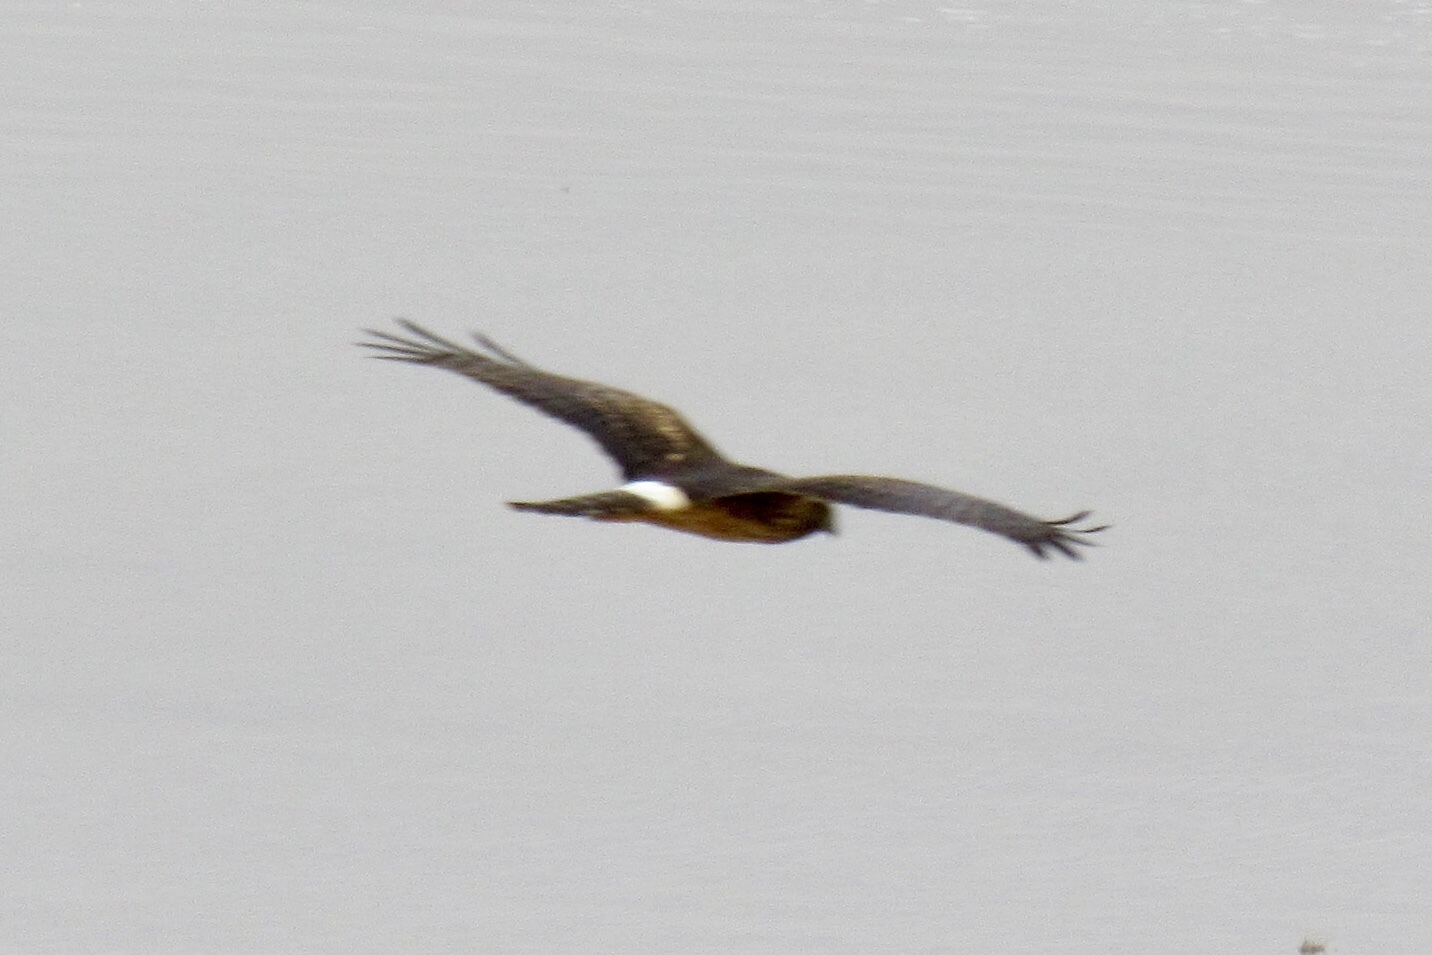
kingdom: Animalia
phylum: Chordata
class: Aves
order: Accipitriformes
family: Accipitridae
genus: Circus
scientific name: Circus cyaneus
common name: Hen harrier
